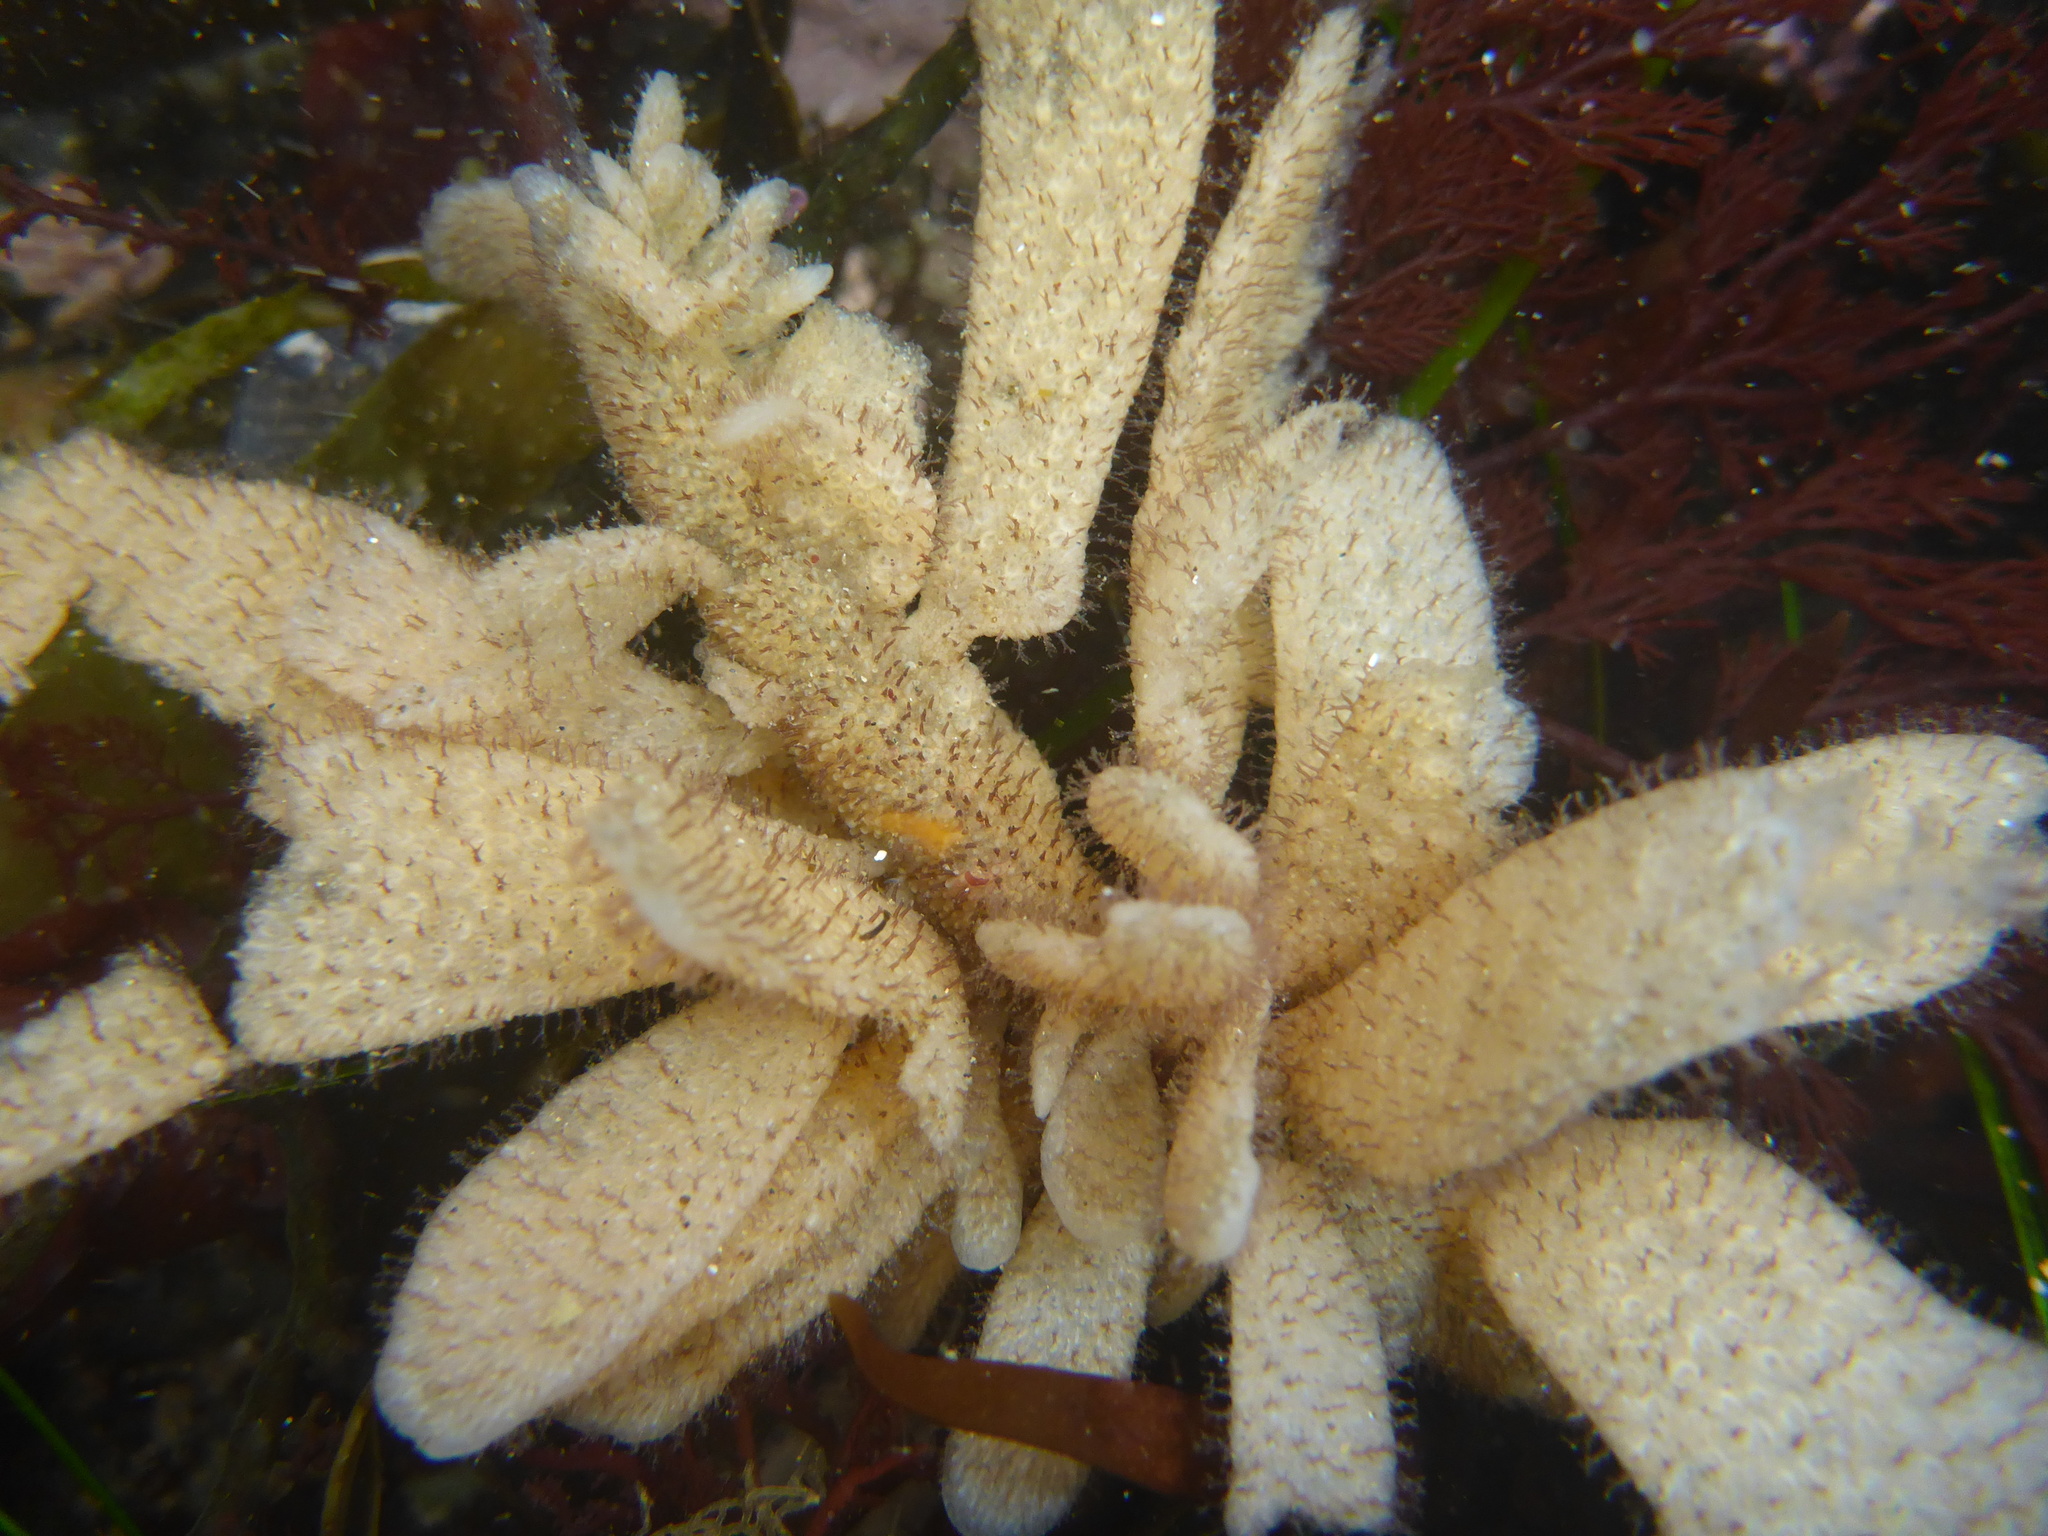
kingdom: Animalia
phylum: Bryozoa
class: Gymnolaemata
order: Ctenostomatida
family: Flustrellidridae
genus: Flustrellidra
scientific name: Flustrellidra corniculata
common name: Spiny leather bryozoan
